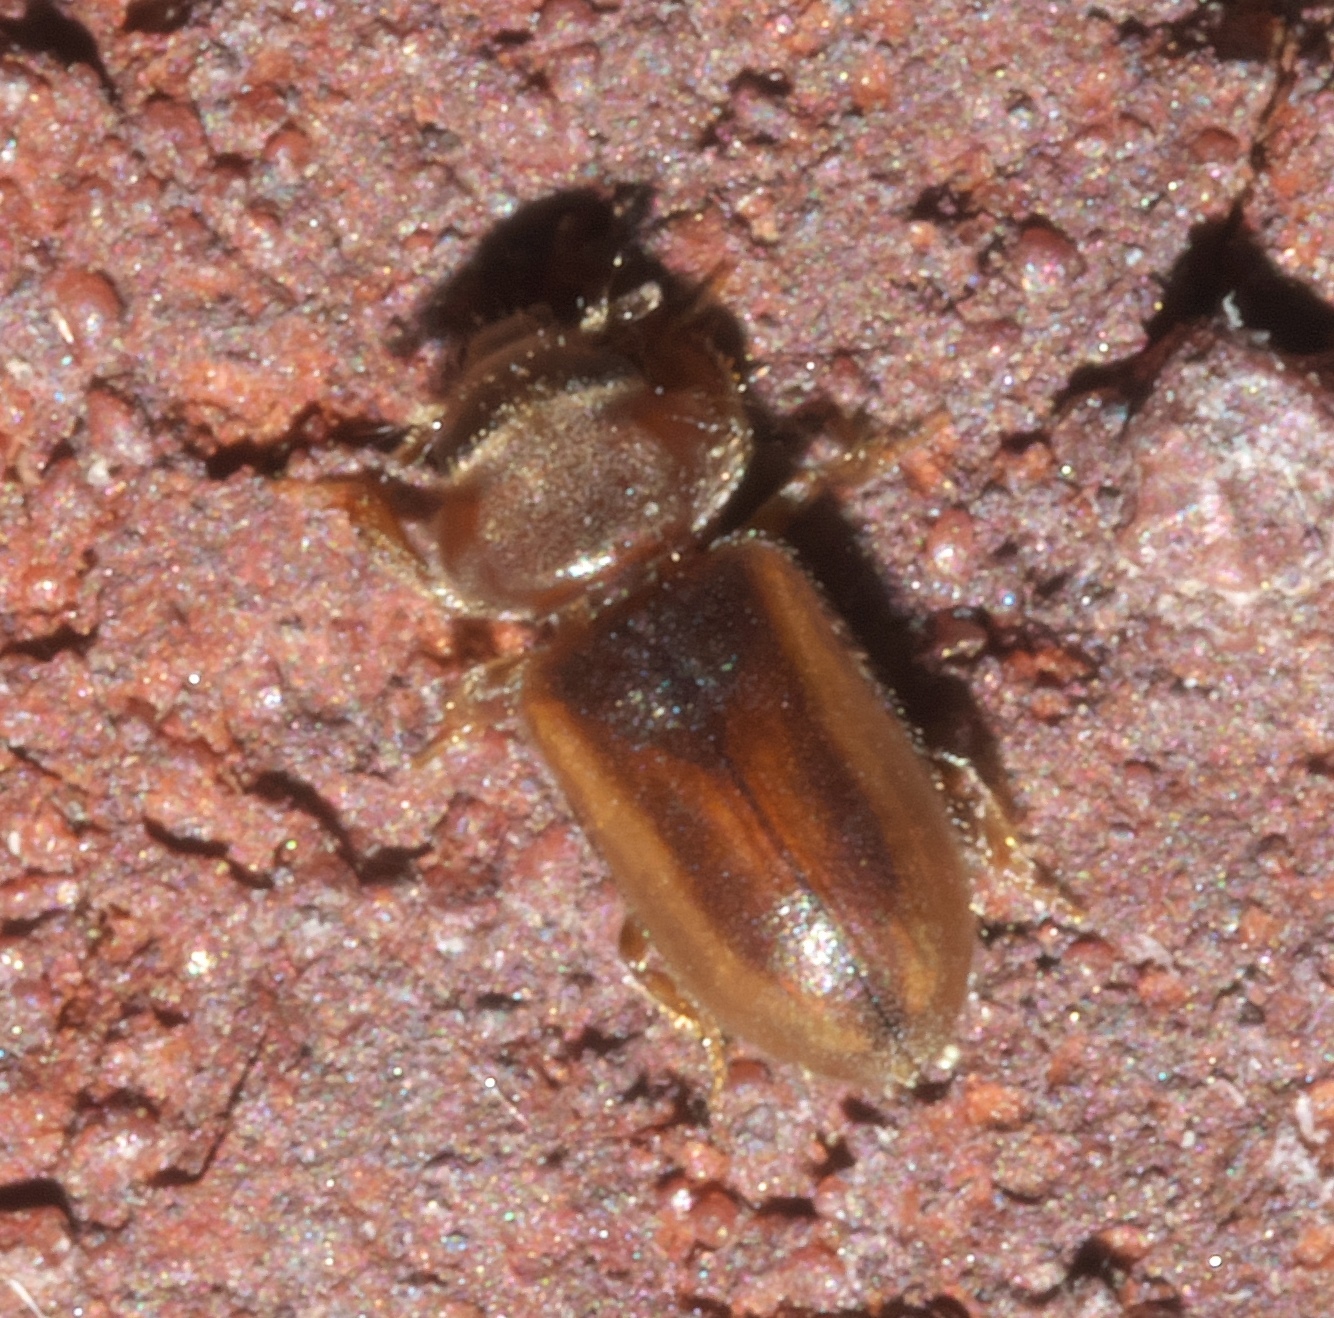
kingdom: Animalia
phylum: Arthropoda
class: Insecta
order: Coleoptera
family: Heteroceridae
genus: Tropicus
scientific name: Tropicus pusillus
